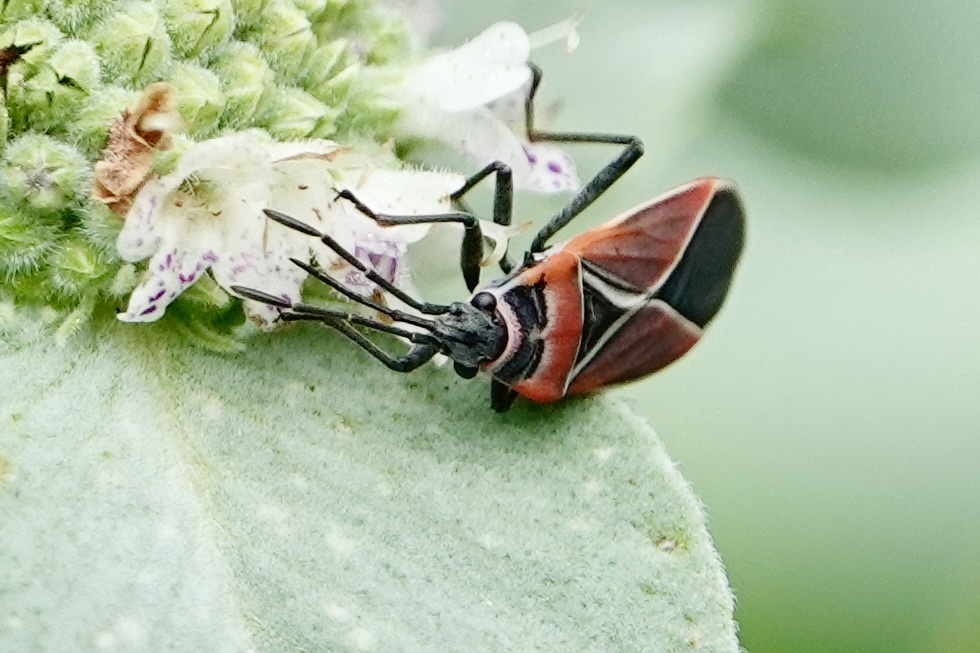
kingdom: Animalia
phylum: Arthropoda
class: Insecta
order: Hemiptera
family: Lygaeidae
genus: Neacoryphus
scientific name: Neacoryphus bicrucis
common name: Lygaeid bug
